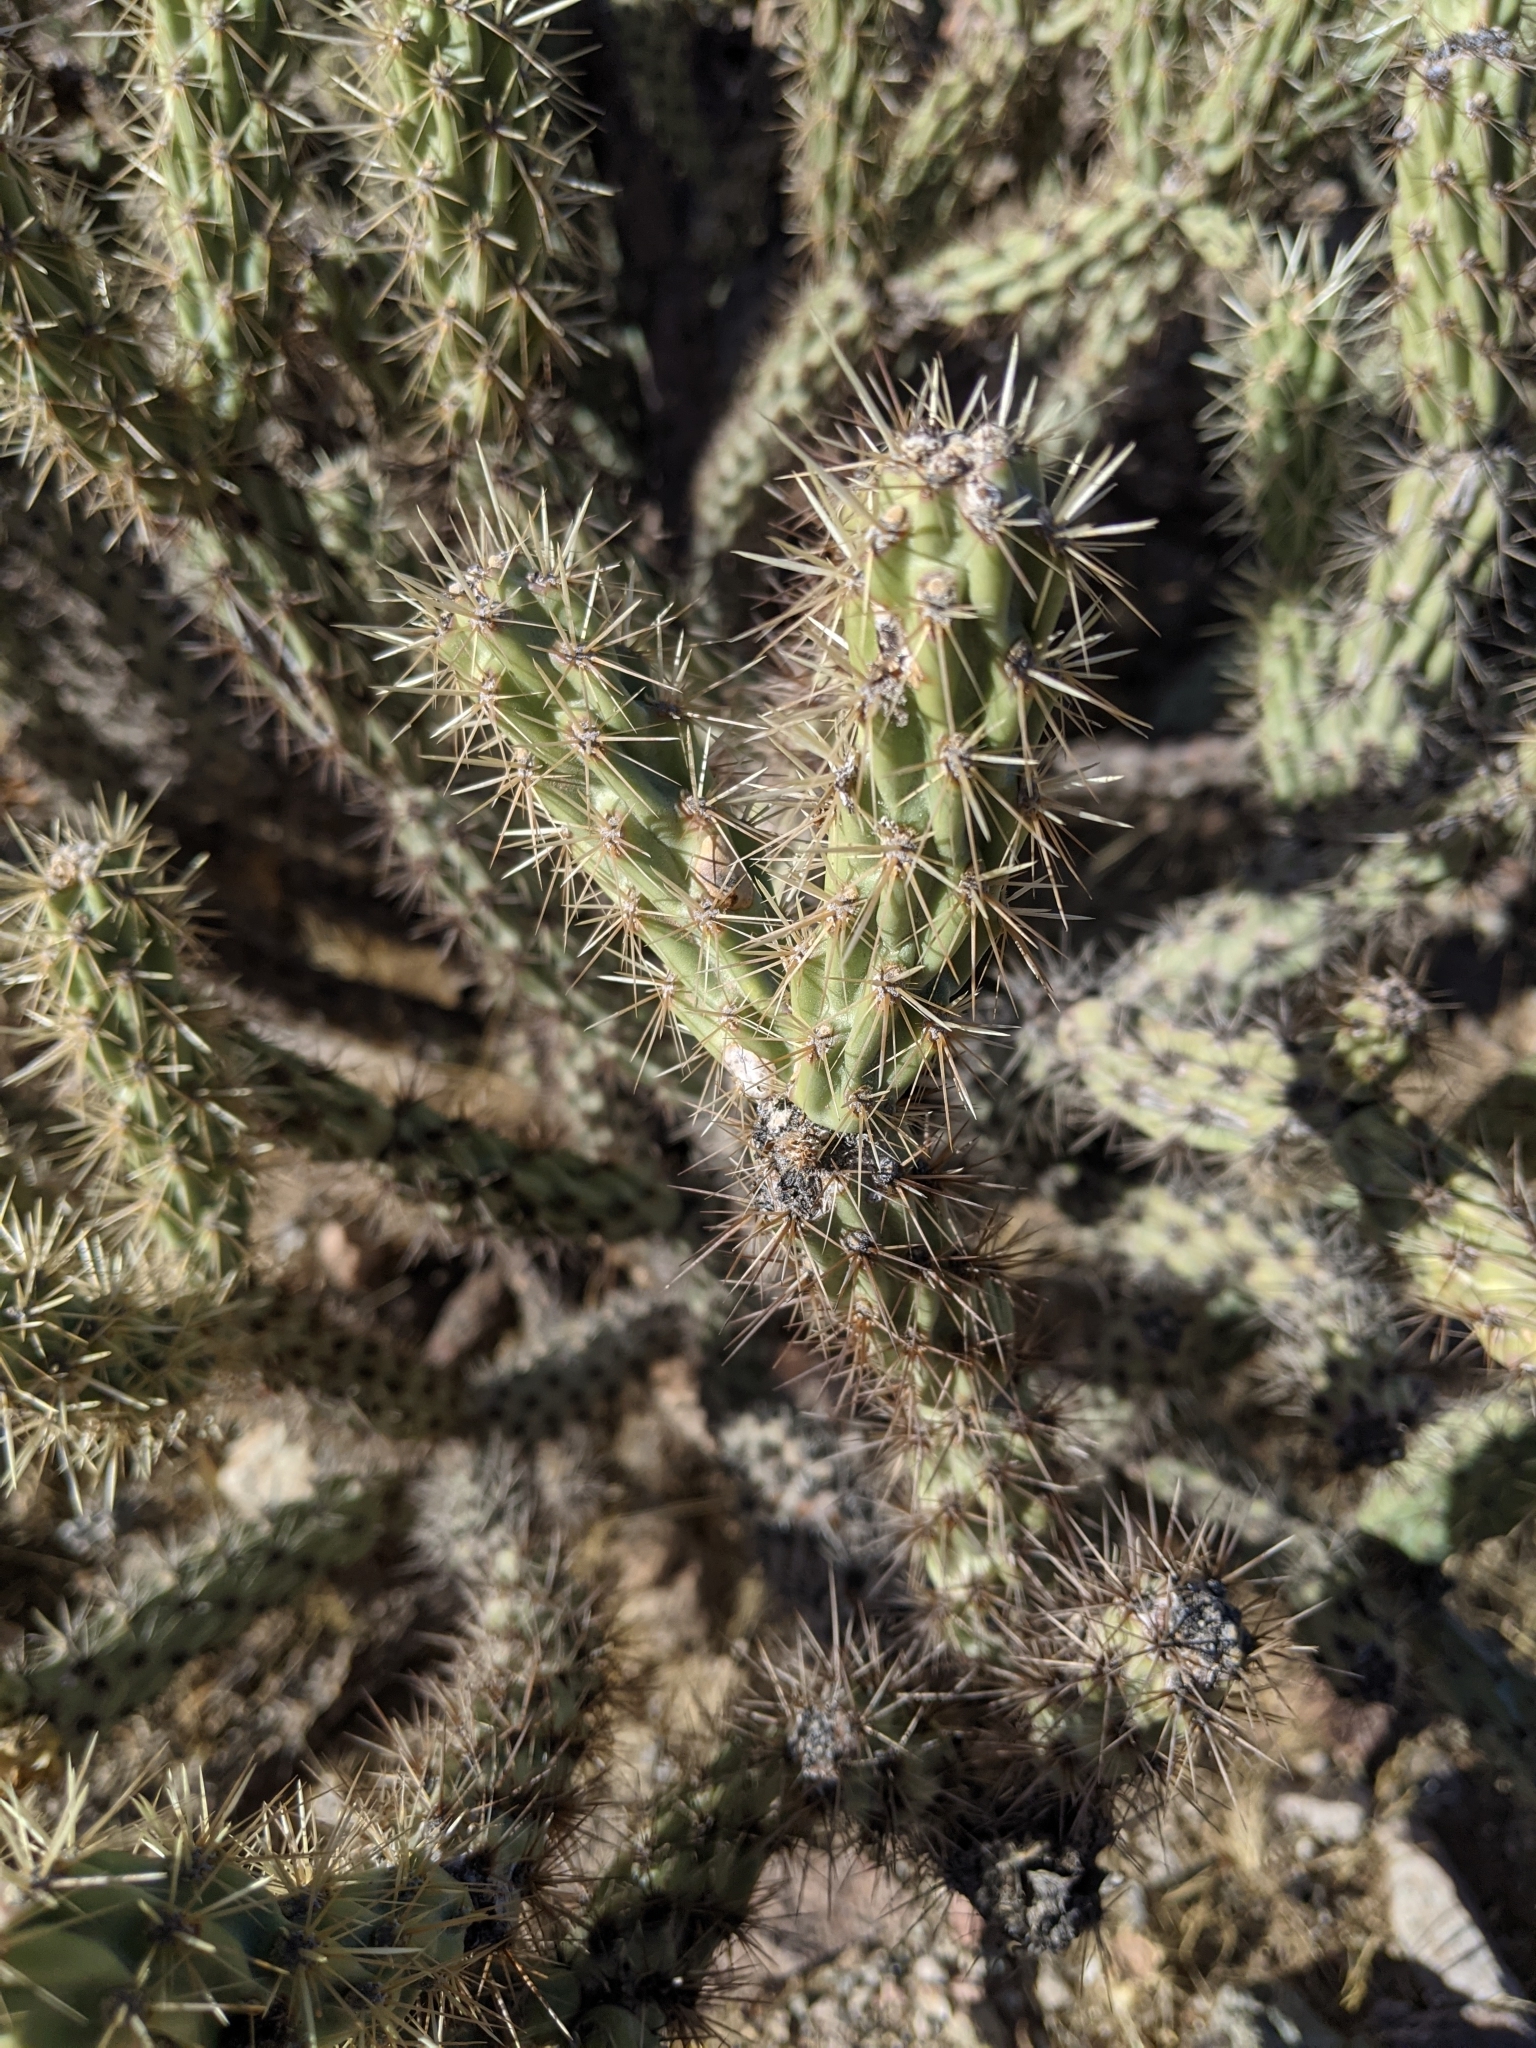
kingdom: Plantae
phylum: Tracheophyta
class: Magnoliopsida
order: Caryophyllales
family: Cactaceae
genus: Cylindropuntia
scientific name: Cylindropuntia acanthocarpa
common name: Buckhorn cholla
